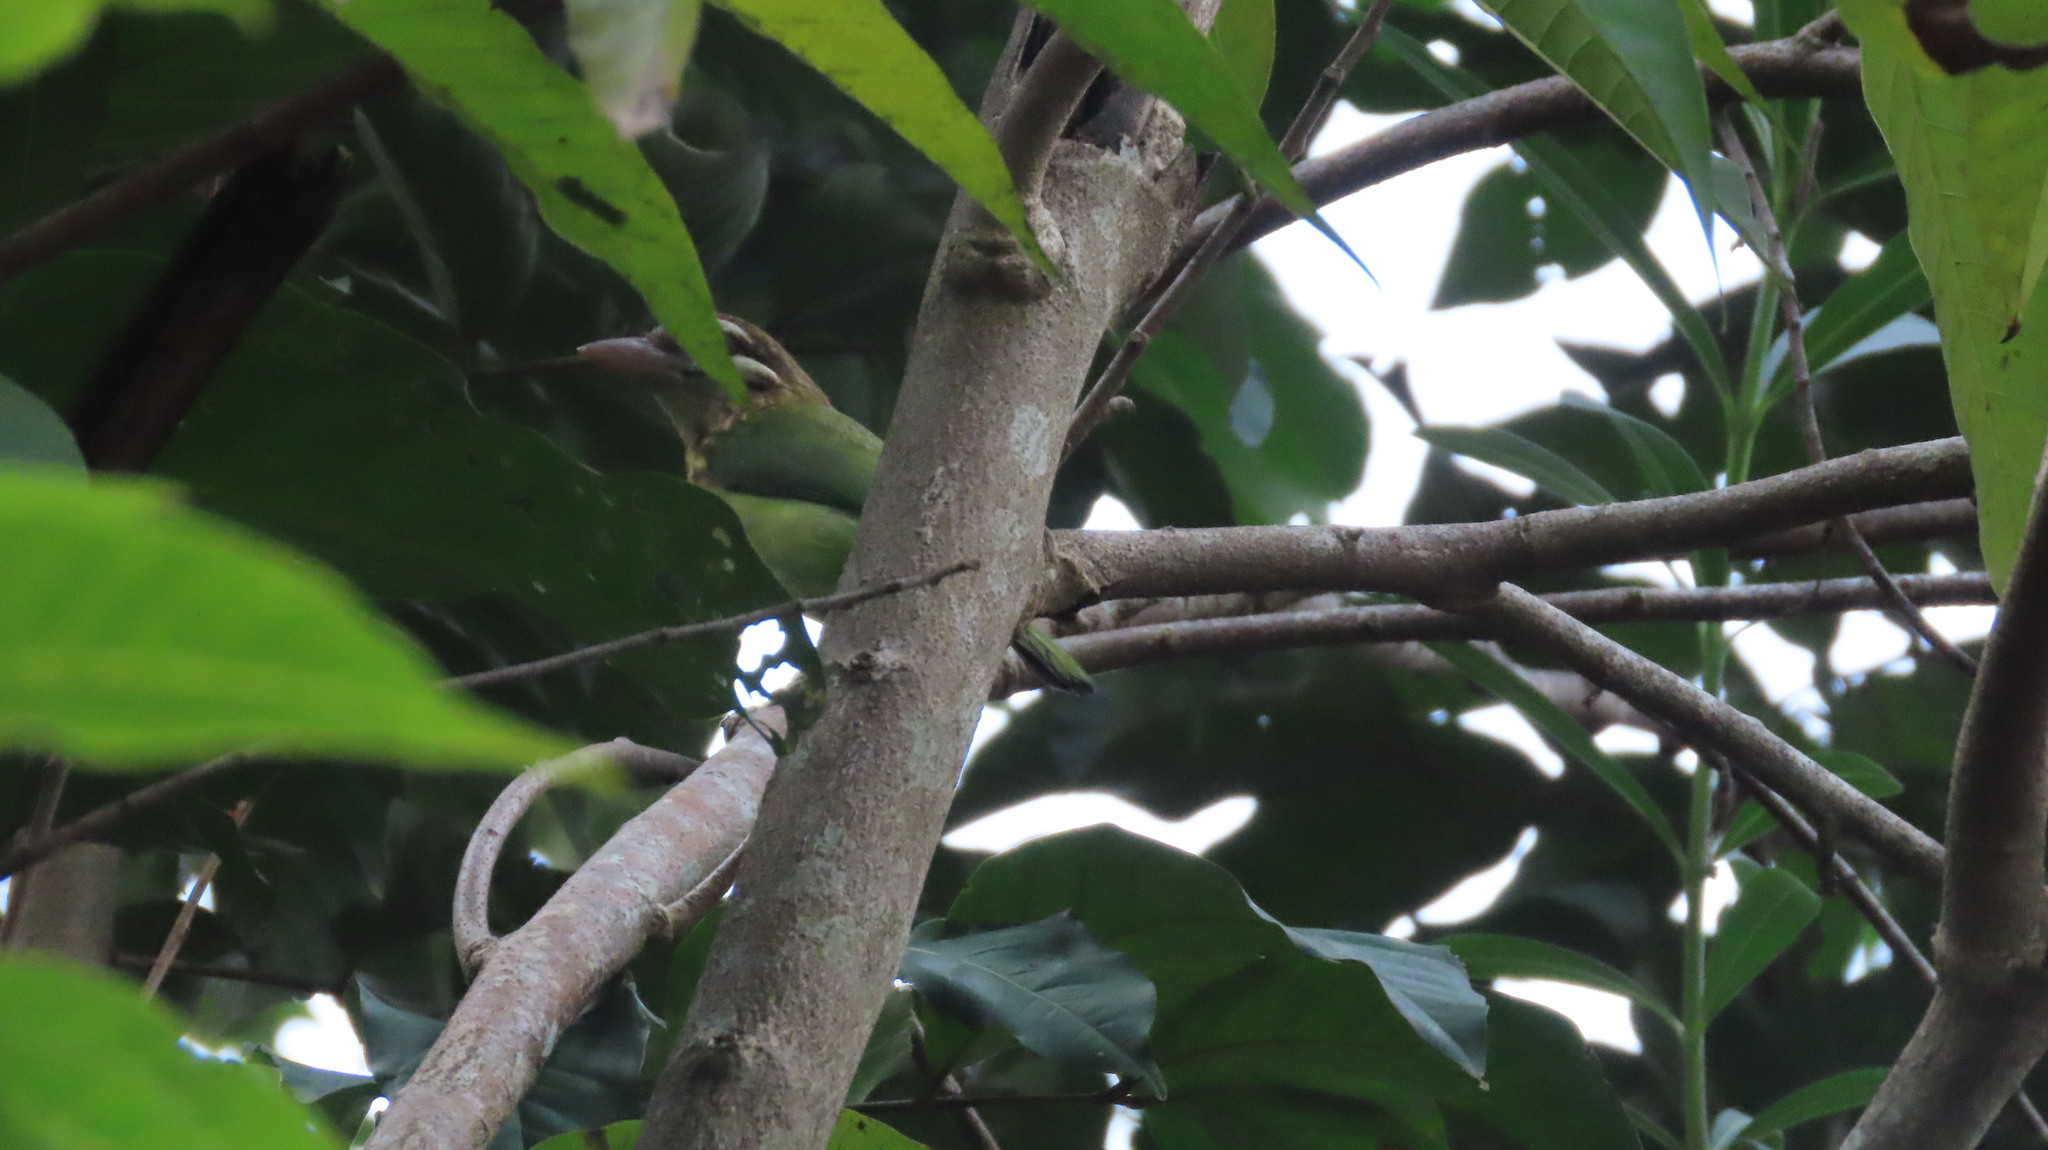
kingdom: Animalia
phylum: Chordata
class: Aves
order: Piciformes
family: Megalaimidae
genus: Psilopogon
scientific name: Psilopogon viridis
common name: White-cheeked barbet
